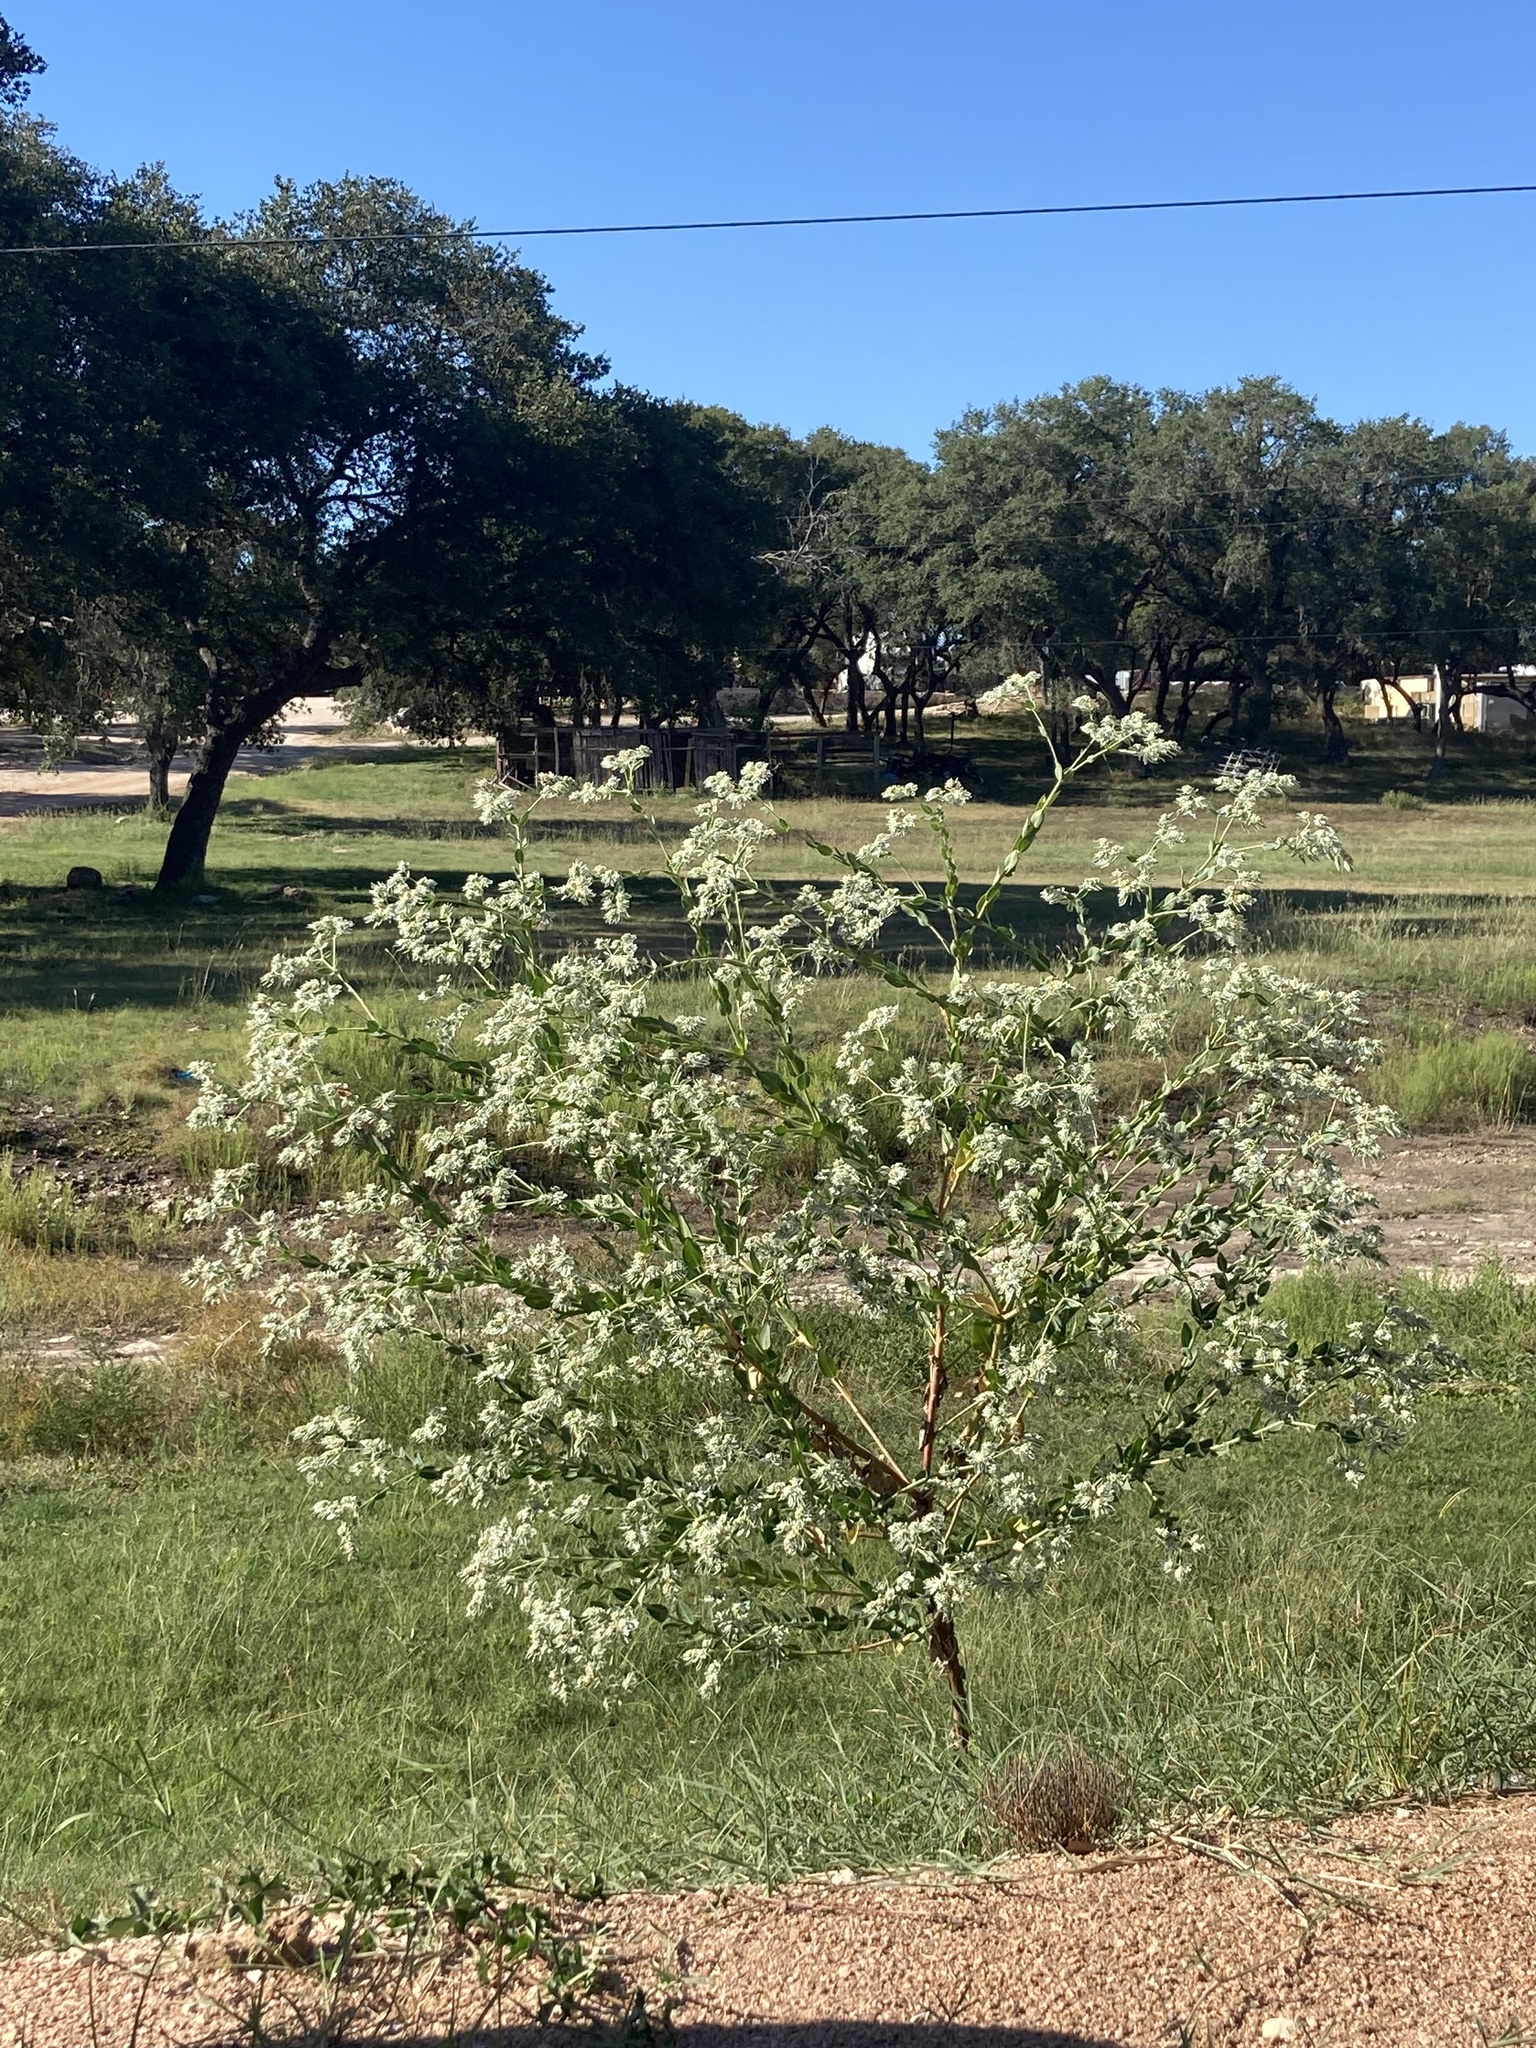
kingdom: Plantae
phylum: Tracheophyta
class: Magnoliopsida
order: Malpighiales
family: Euphorbiaceae
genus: Euphorbia
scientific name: Euphorbia marginata
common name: Ghostweed
